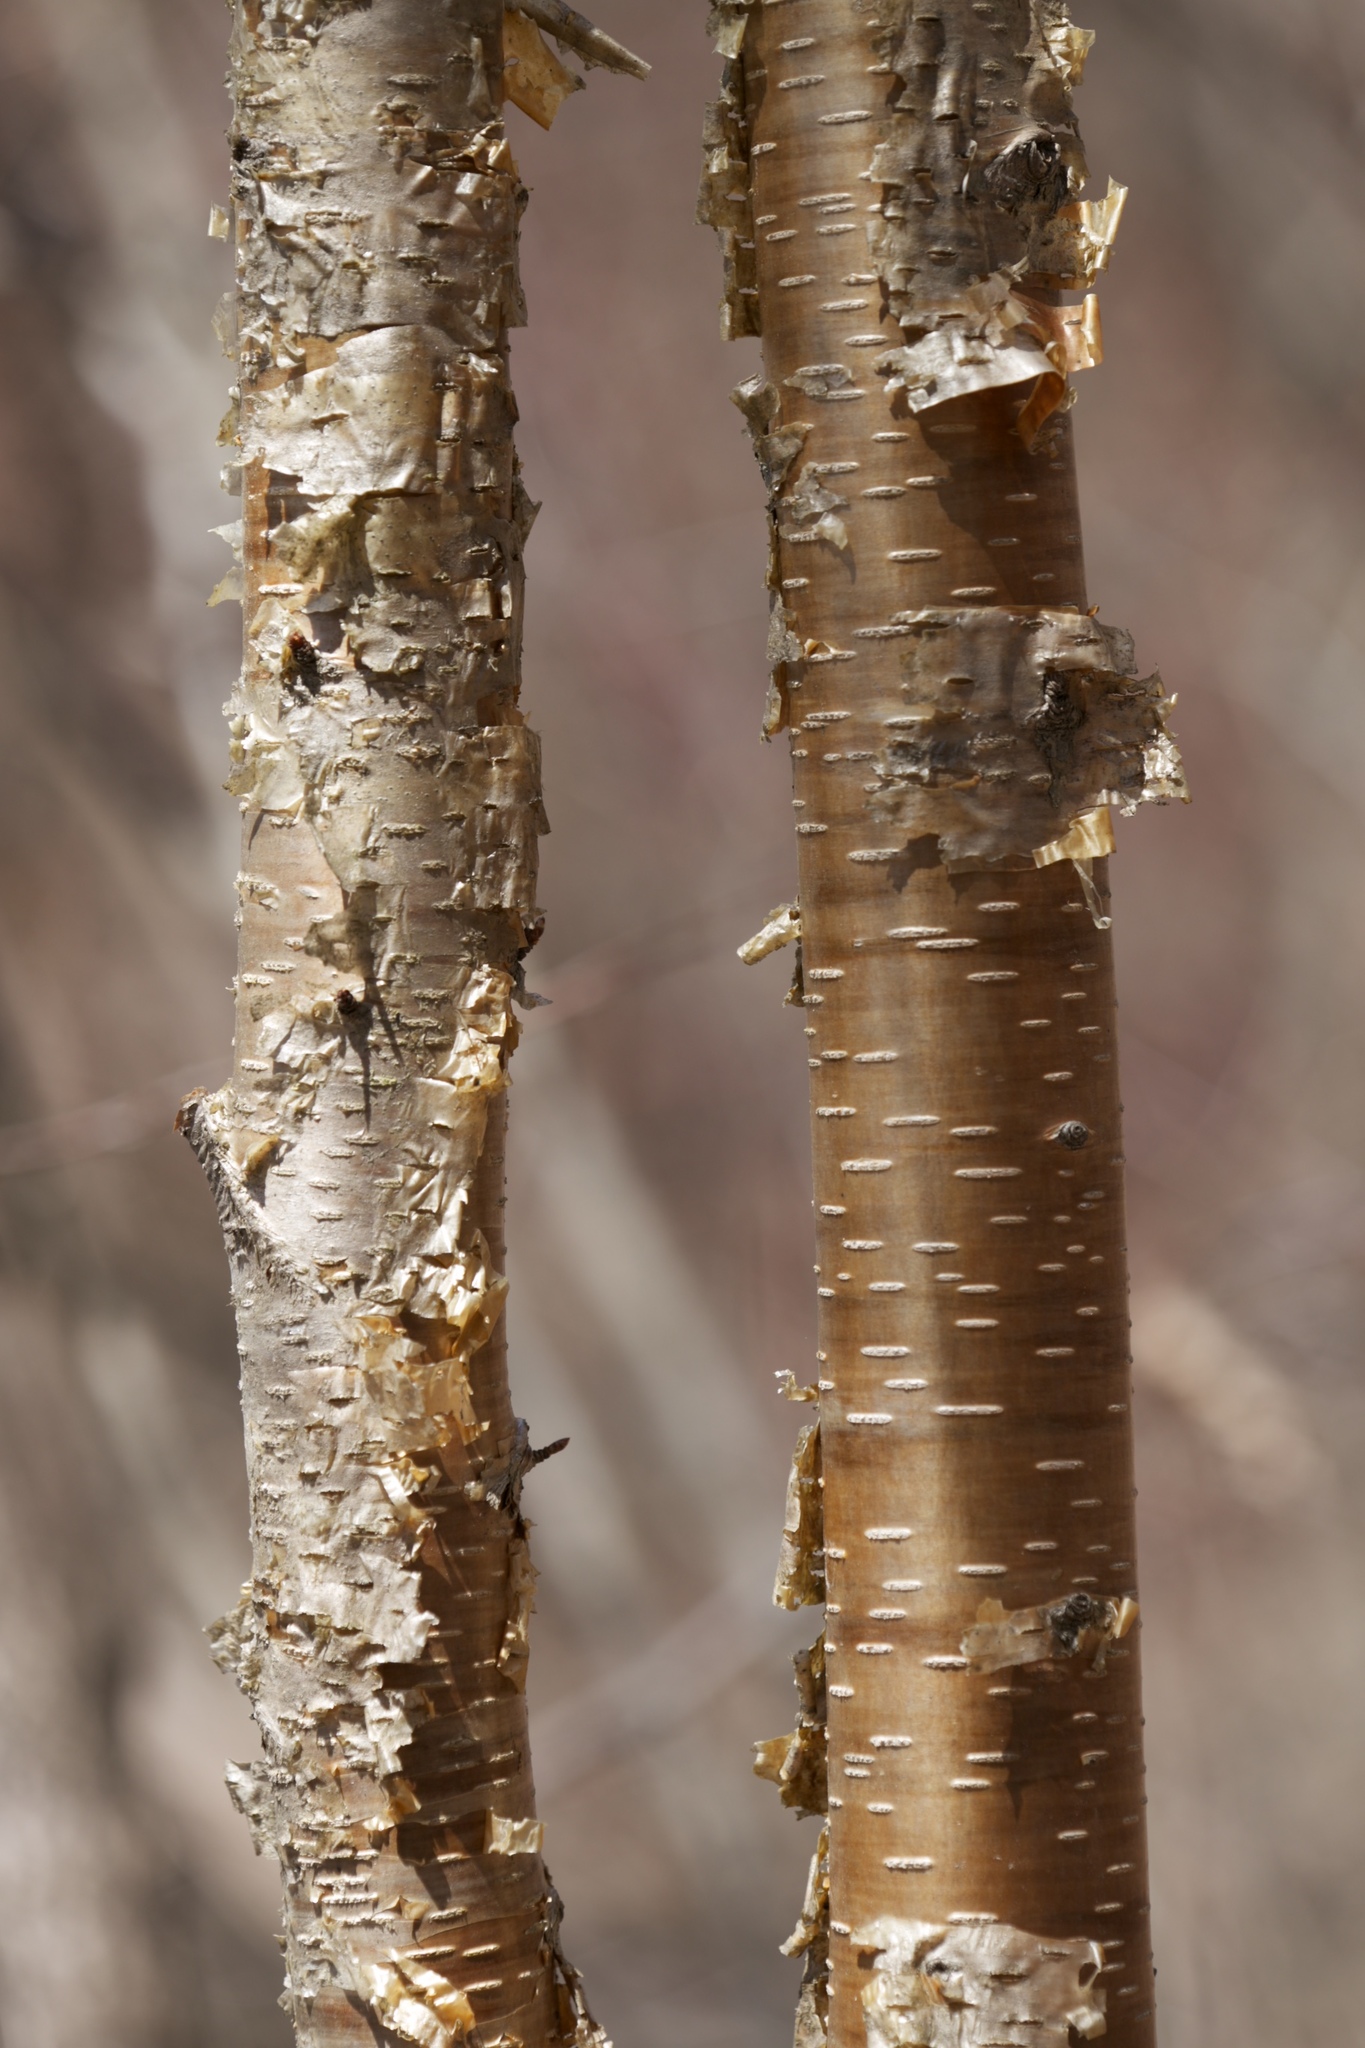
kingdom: Plantae
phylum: Tracheophyta
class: Magnoliopsida
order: Fagales
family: Betulaceae
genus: Betula
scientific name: Betula alleghaniensis
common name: Yellow birch
